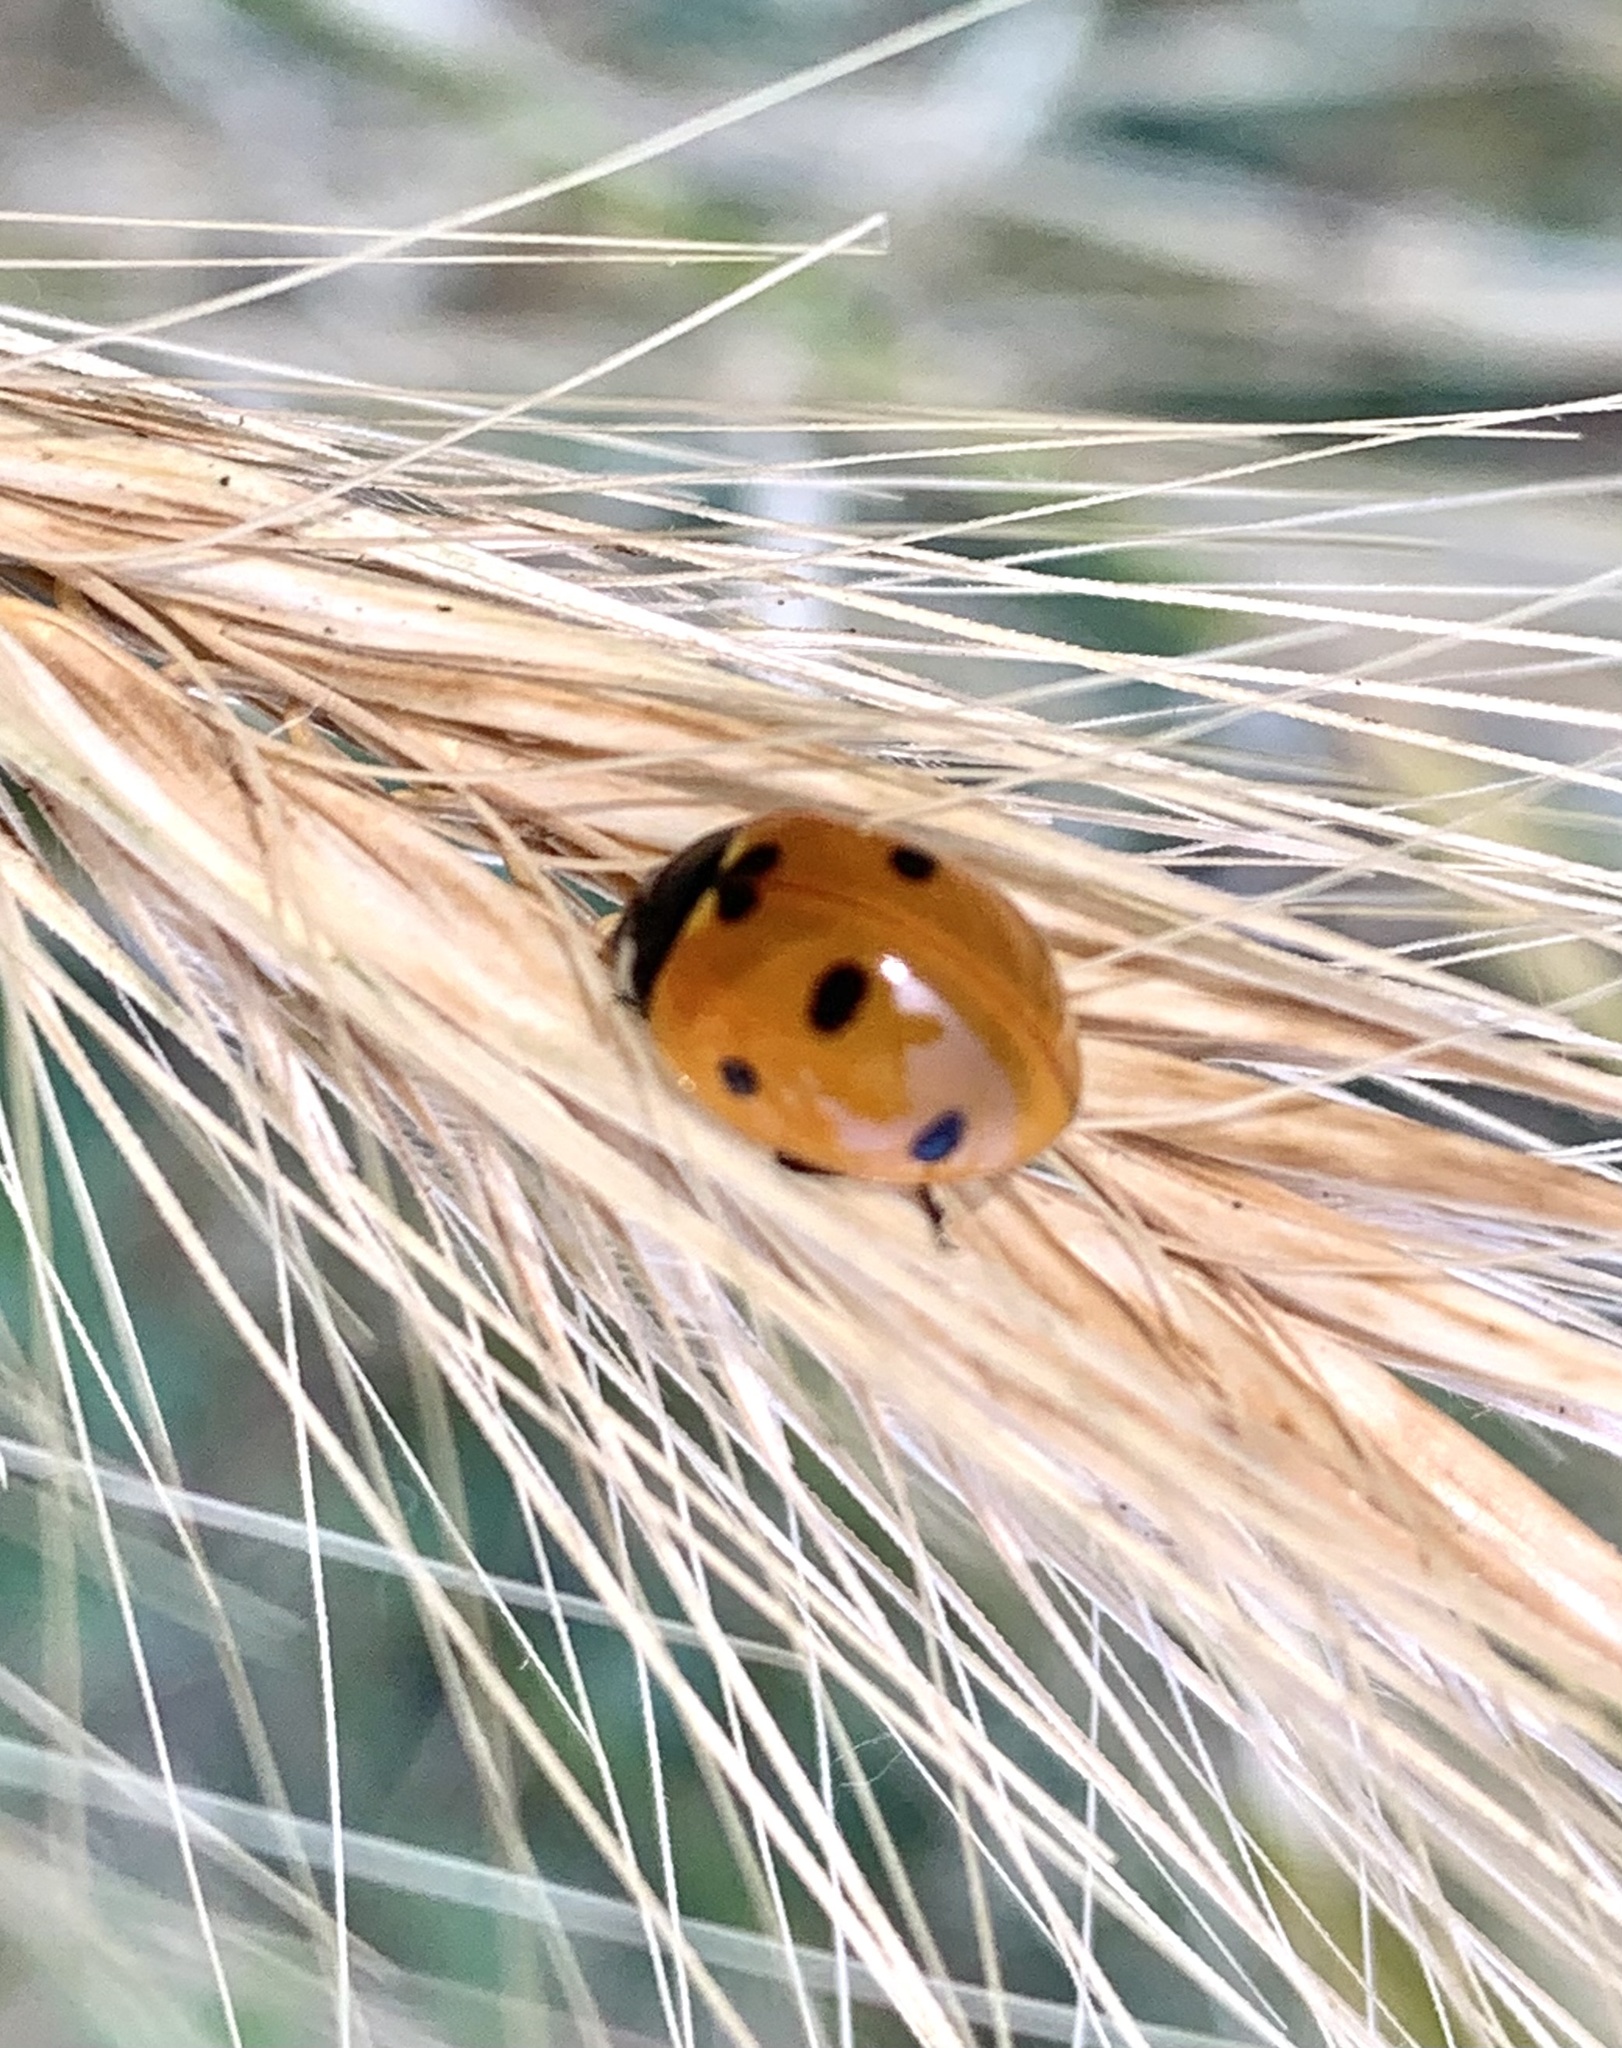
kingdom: Animalia
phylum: Arthropoda
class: Insecta
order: Coleoptera
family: Coccinellidae
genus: Coccinella
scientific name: Coccinella septempunctata
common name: Sevenspotted lady beetle
